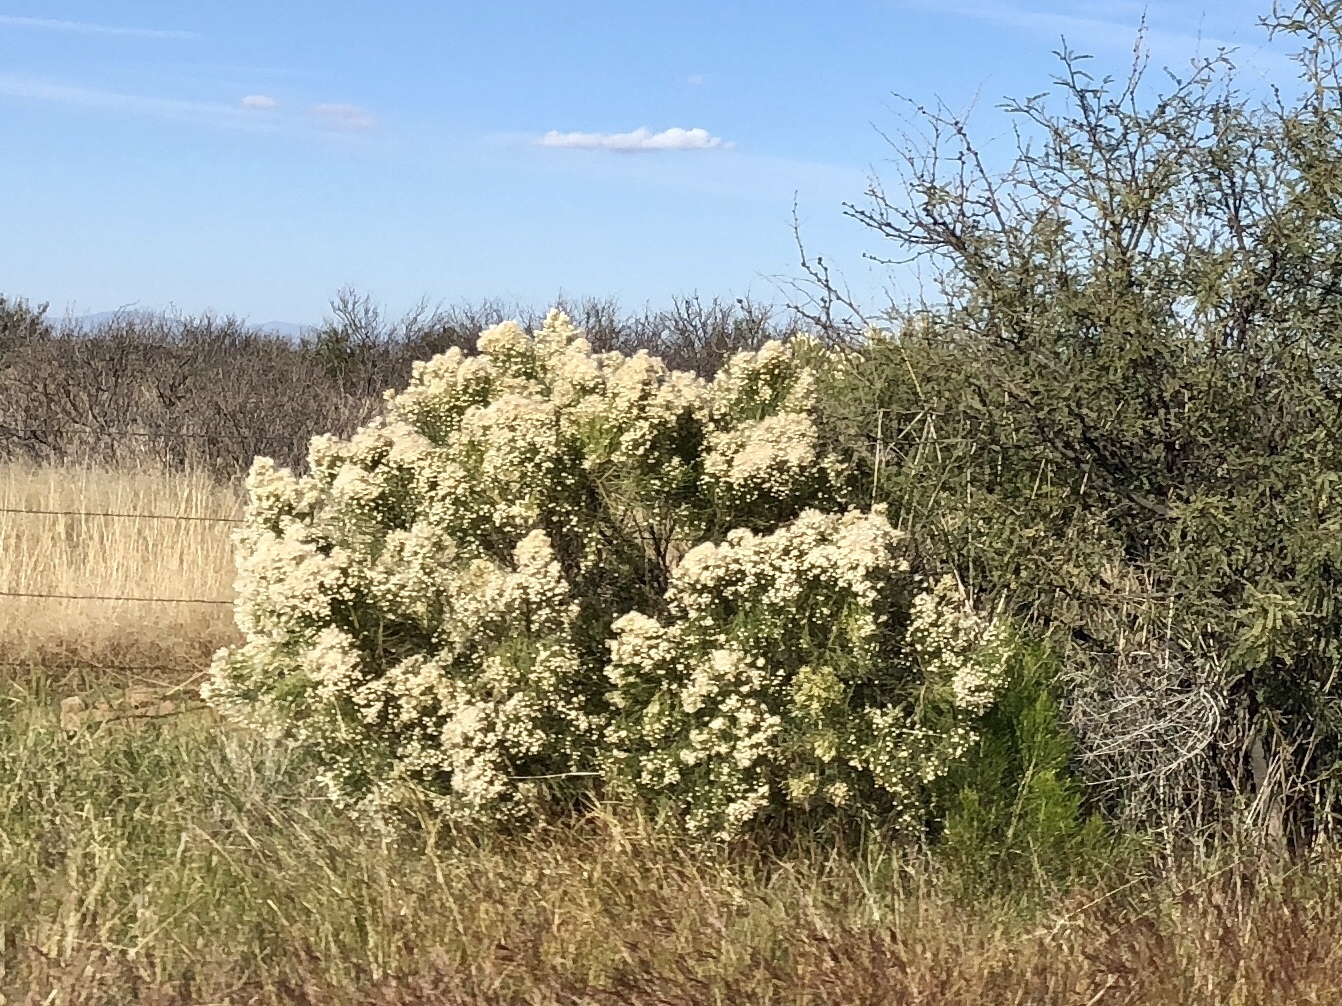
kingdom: Plantae
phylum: Tracheophyta
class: Magnoliopsida
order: Asterales
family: Asteraceae
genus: Baccharis
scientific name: Baccharis sarothroides
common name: Desert-broom
